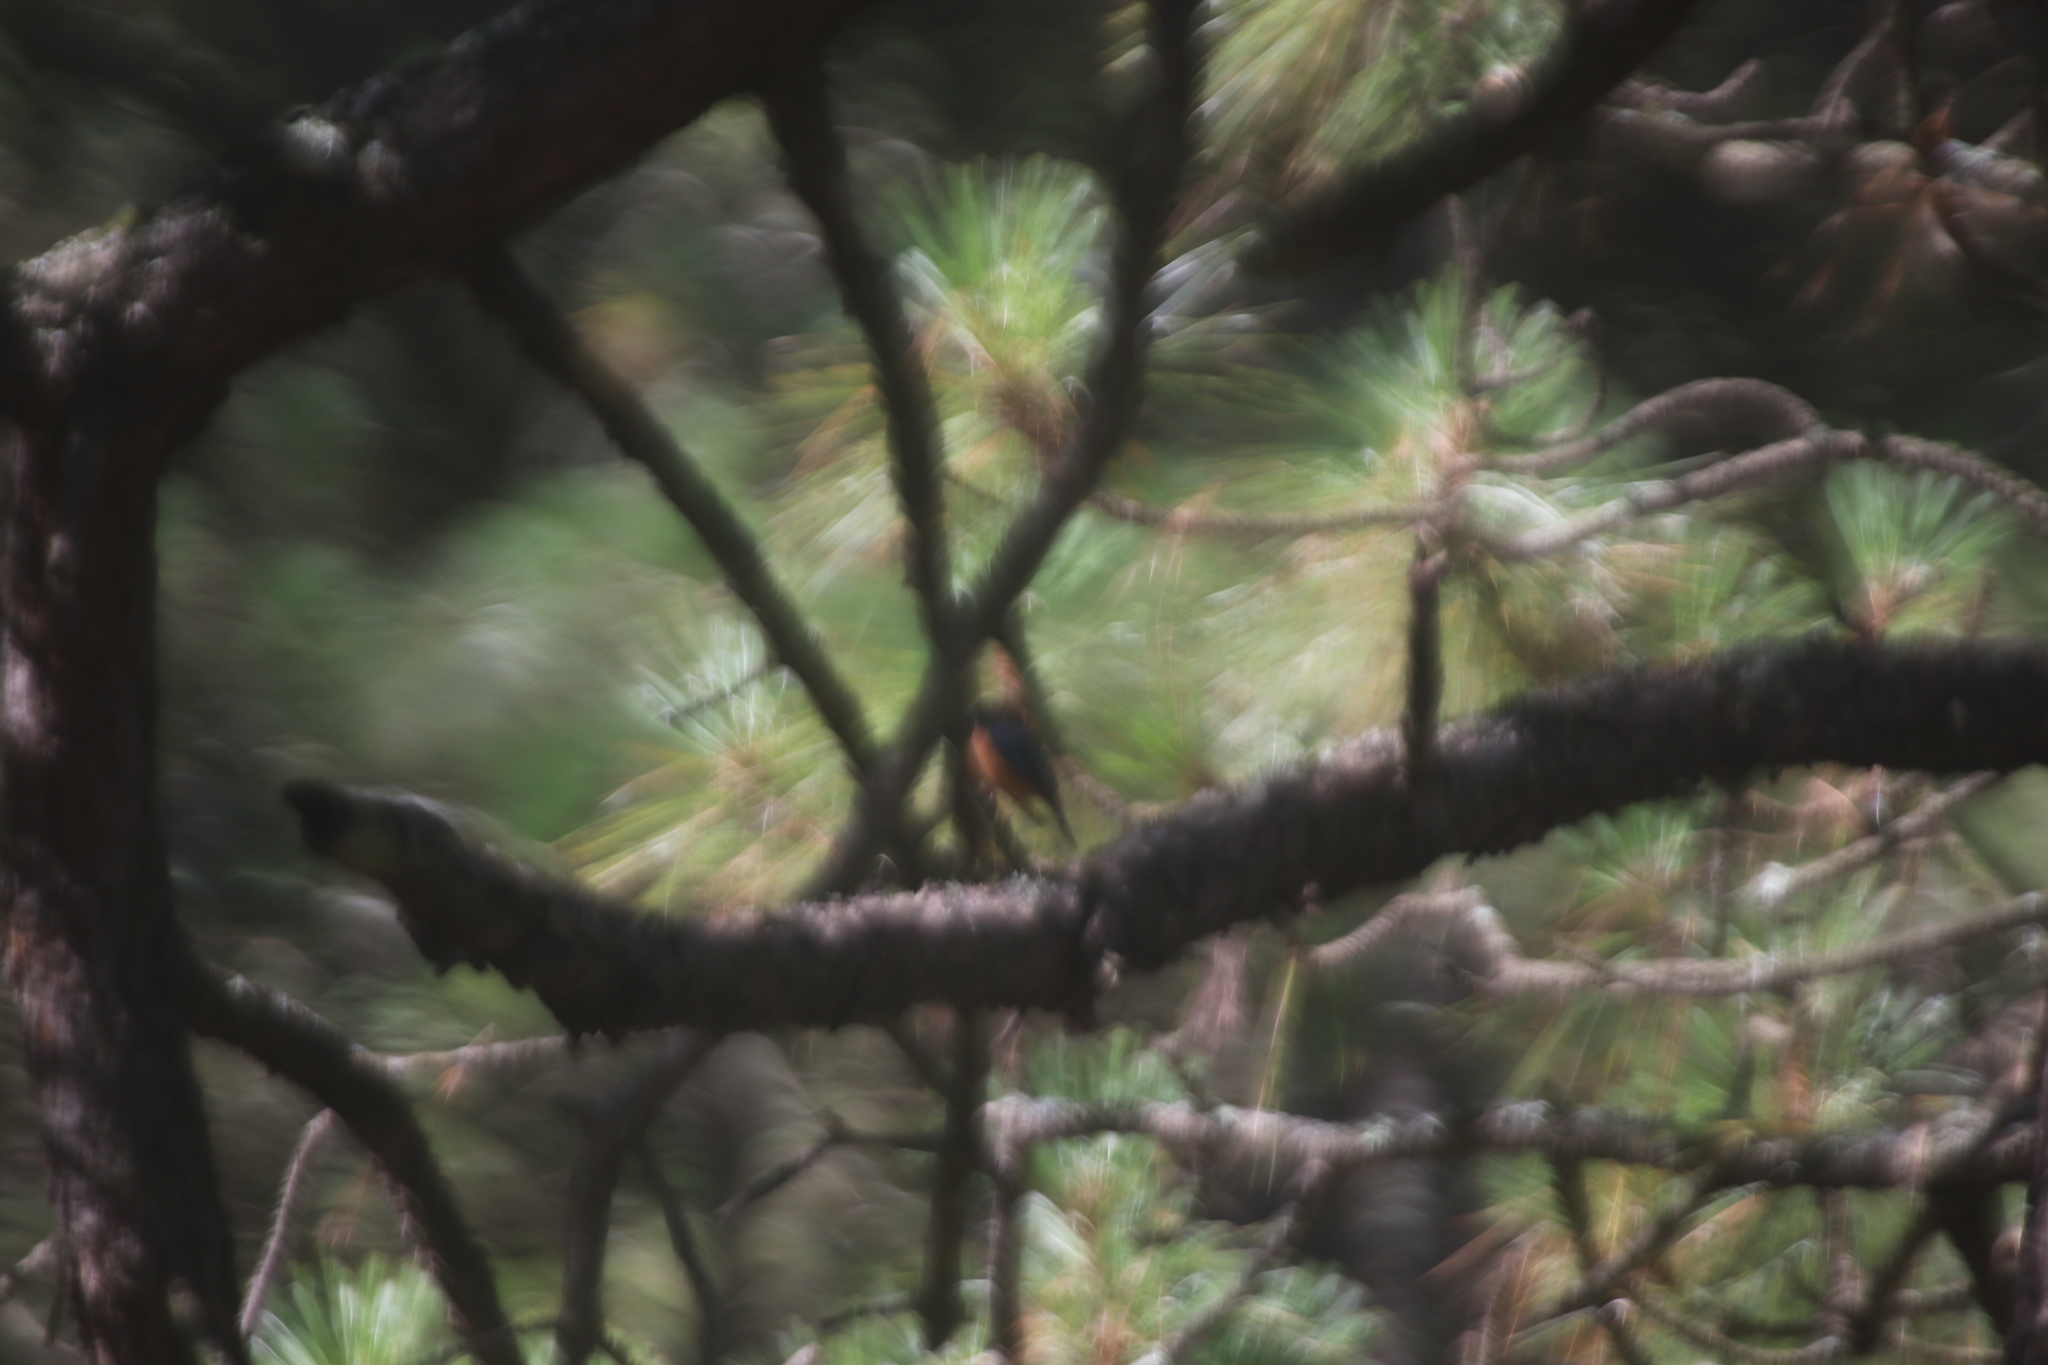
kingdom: Animalia
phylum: Chordata
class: Aves
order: Passeriformes
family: Parulidae
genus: Myioborus
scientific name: Myioborus miniatus
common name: Slate-throated redstart
